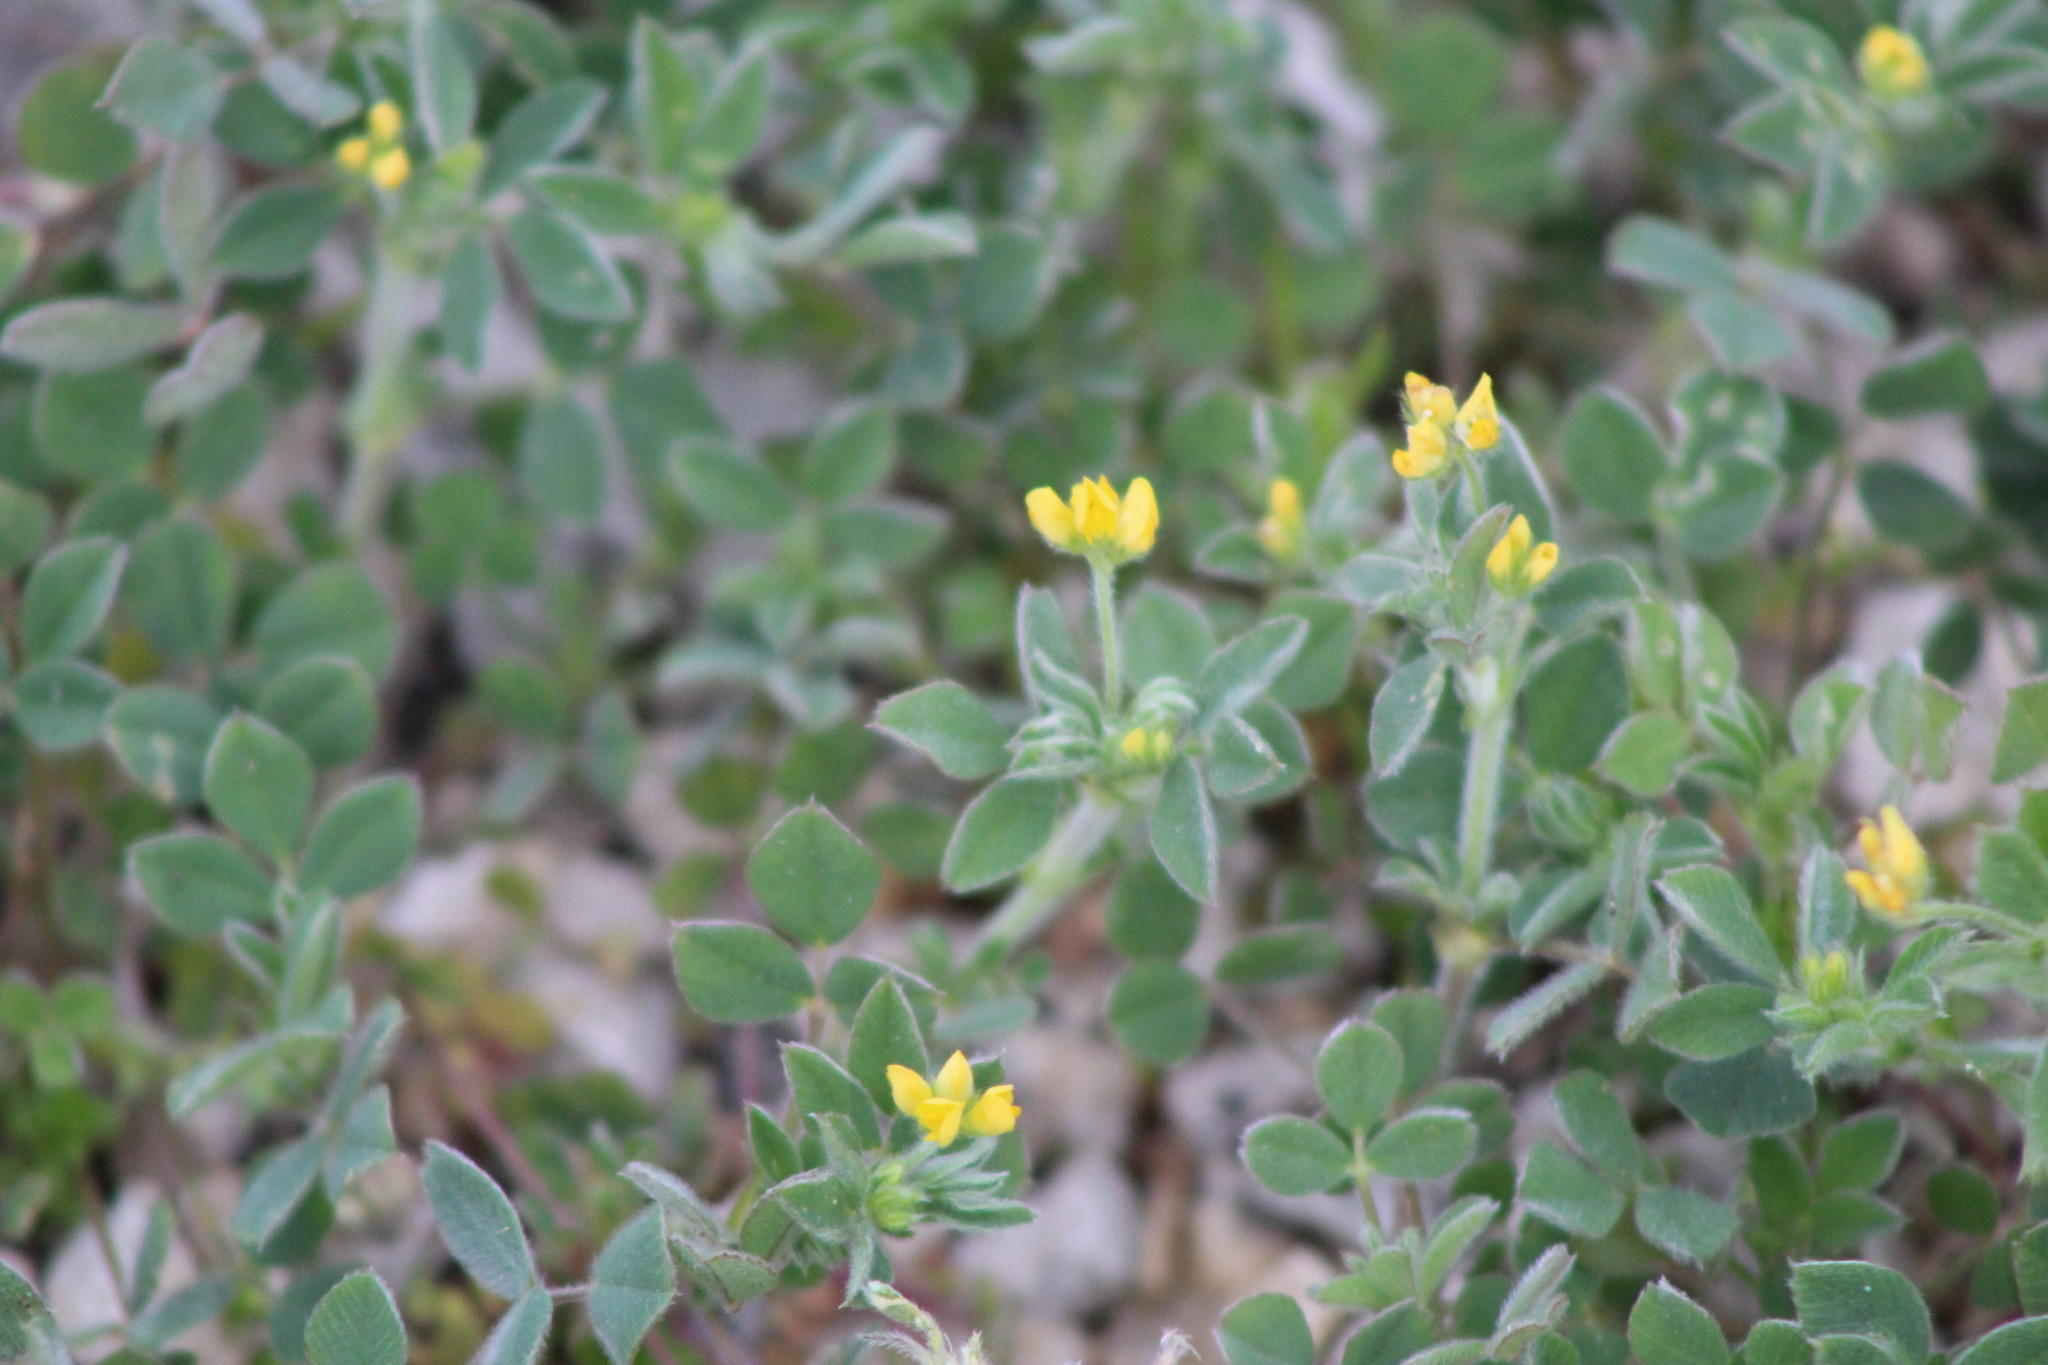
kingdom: Plantae
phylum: Tracheophyta
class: Magnoliopsida
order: Fabales
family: Fabaceae
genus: Medicago
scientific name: Medicago minima
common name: Little bur-clover
